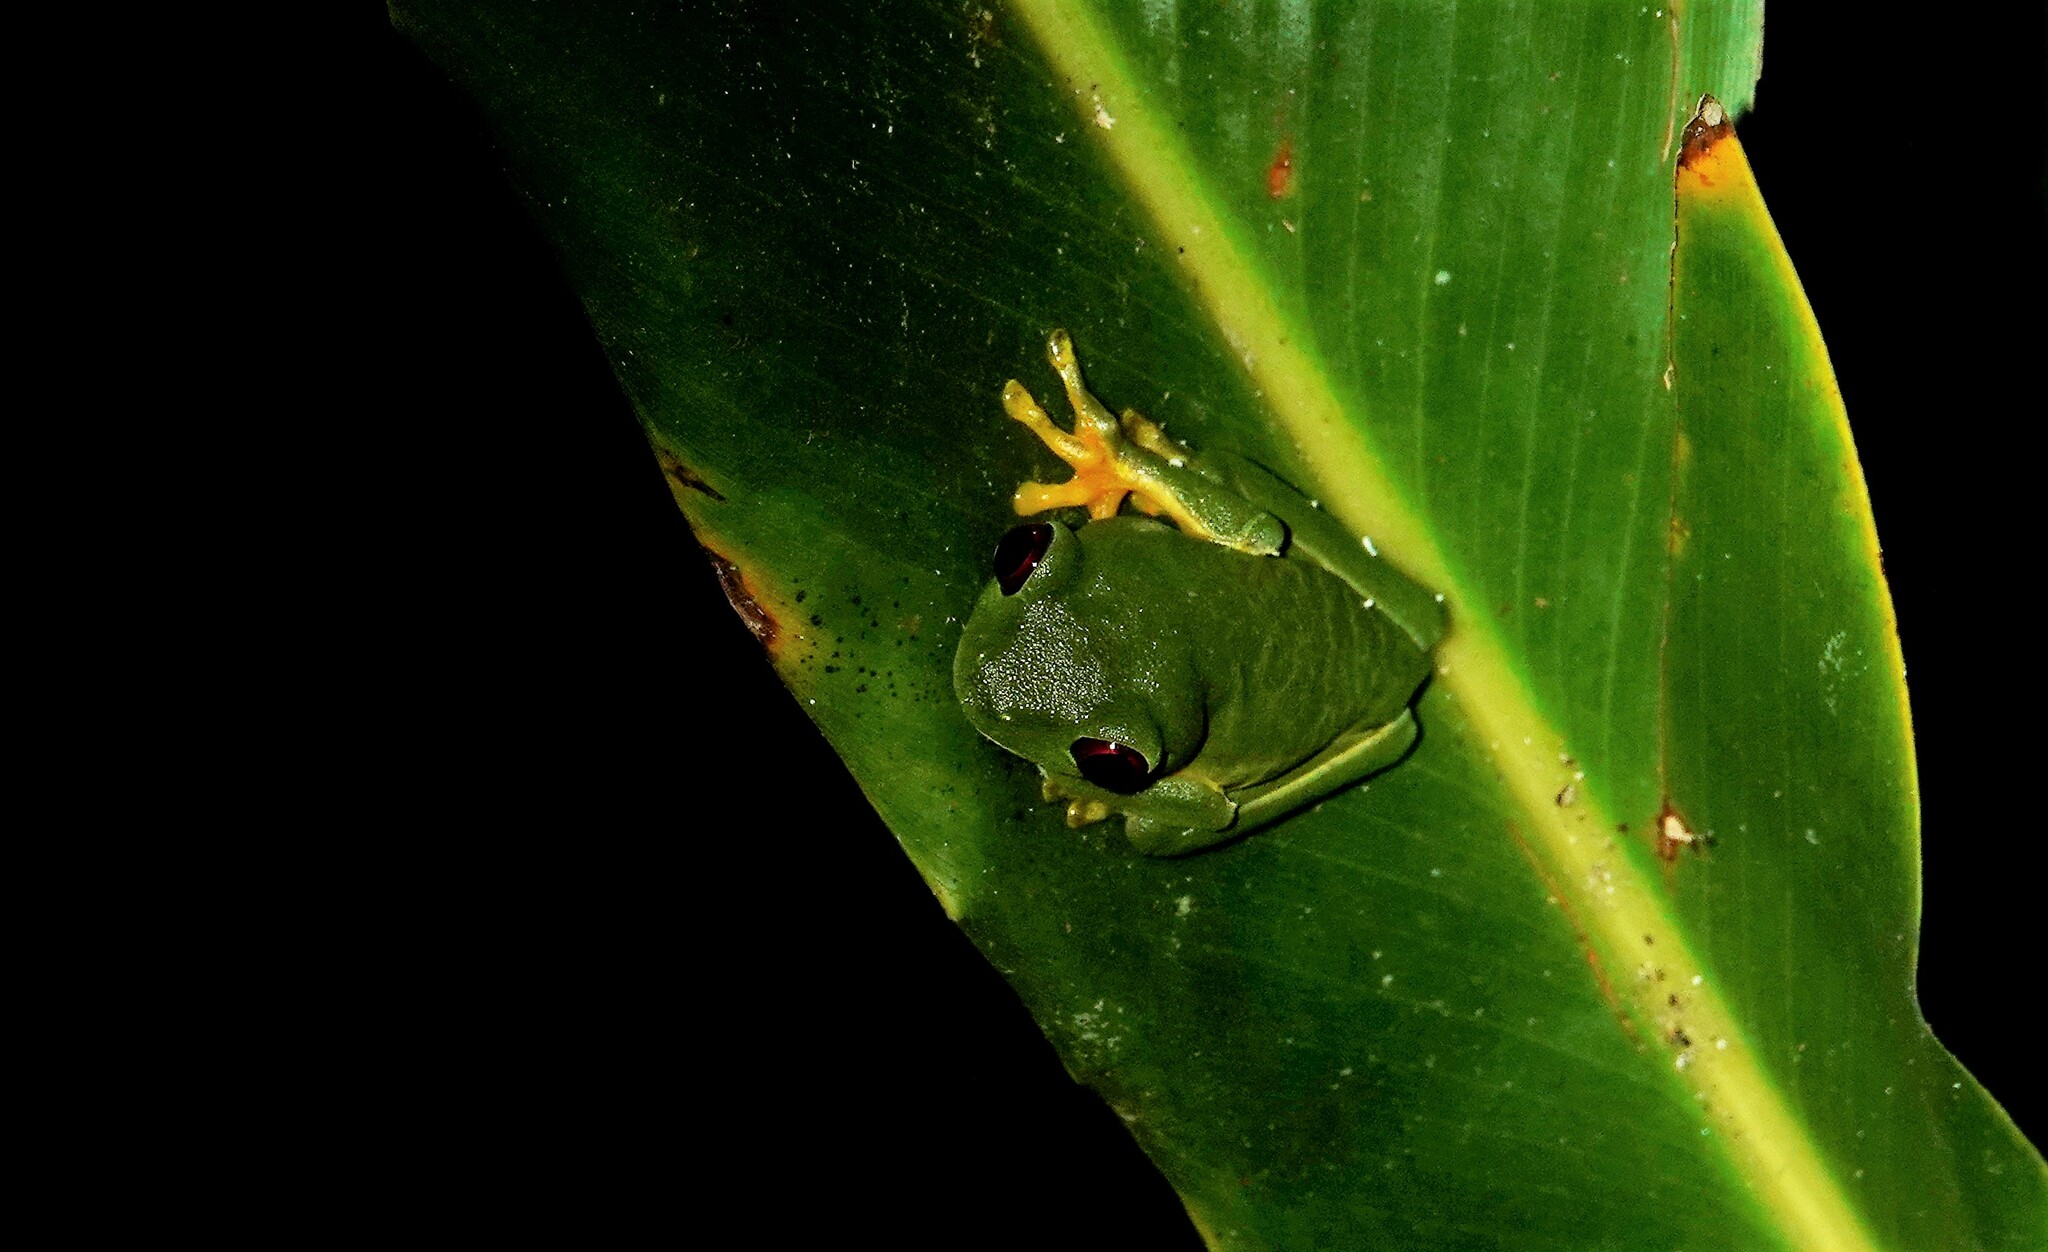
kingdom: Animalia
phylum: Chordata
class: Amphibia
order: Anura
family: Phyllomedusidae
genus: Agalychnis
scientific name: Agalychnis callidryas
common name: Red-eyed treefrog
